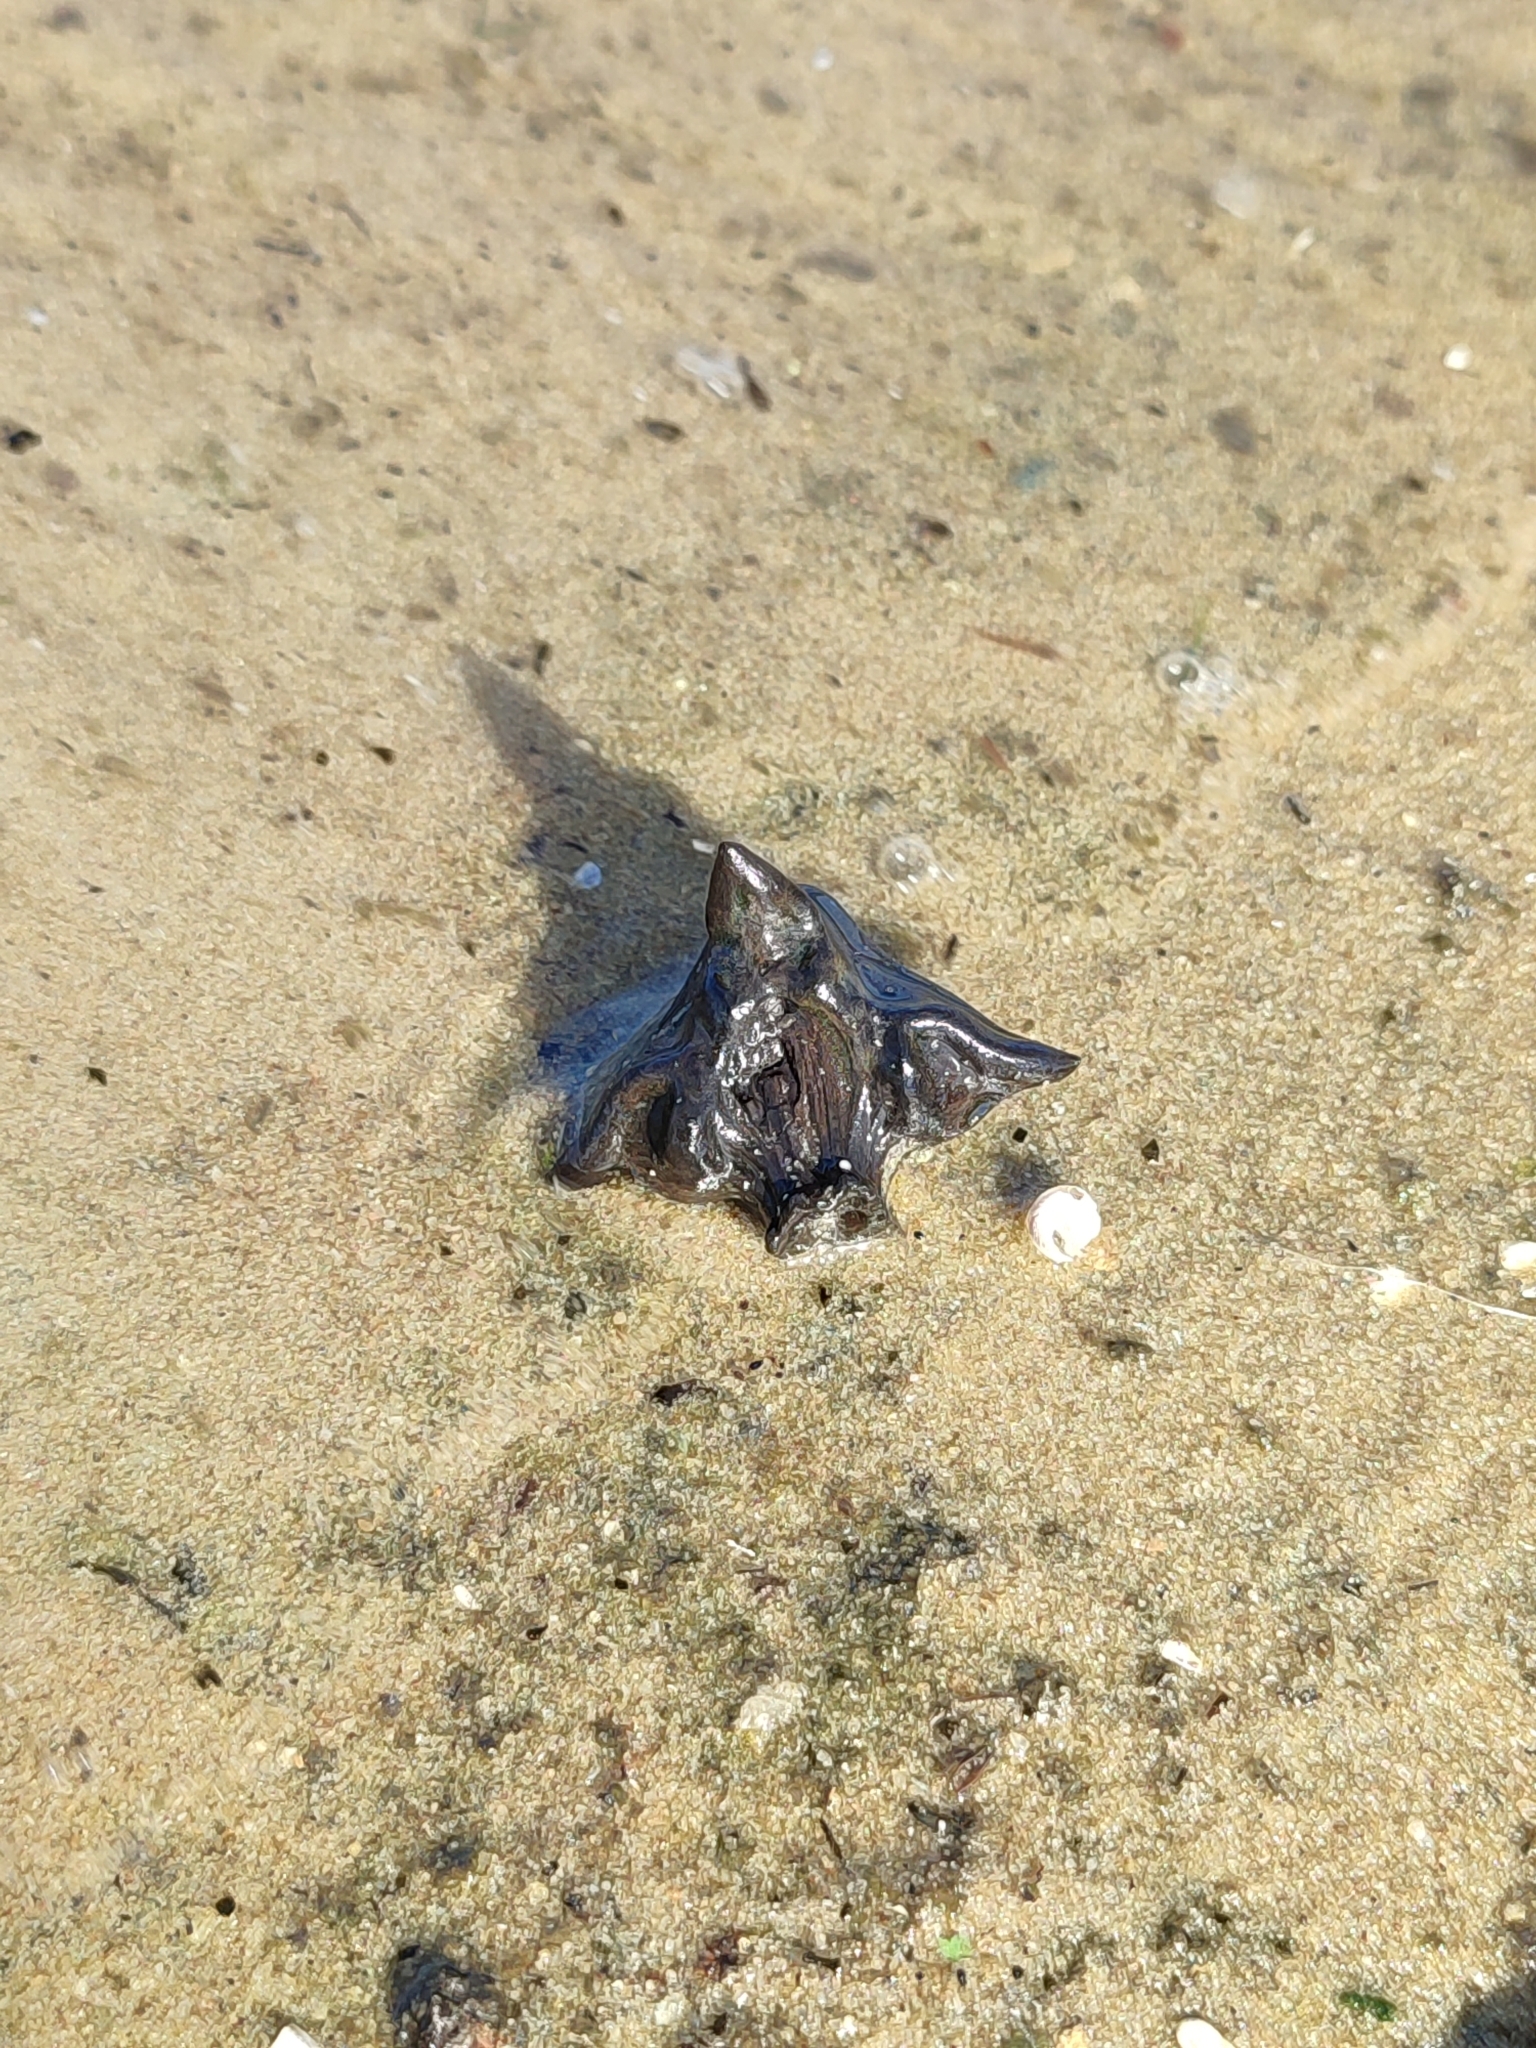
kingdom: Plantae
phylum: Tracheophyta
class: Magnoliopsida
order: Myrtales
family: Lythraceae
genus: Trapa
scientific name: Trapa natans
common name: Water chestnut
